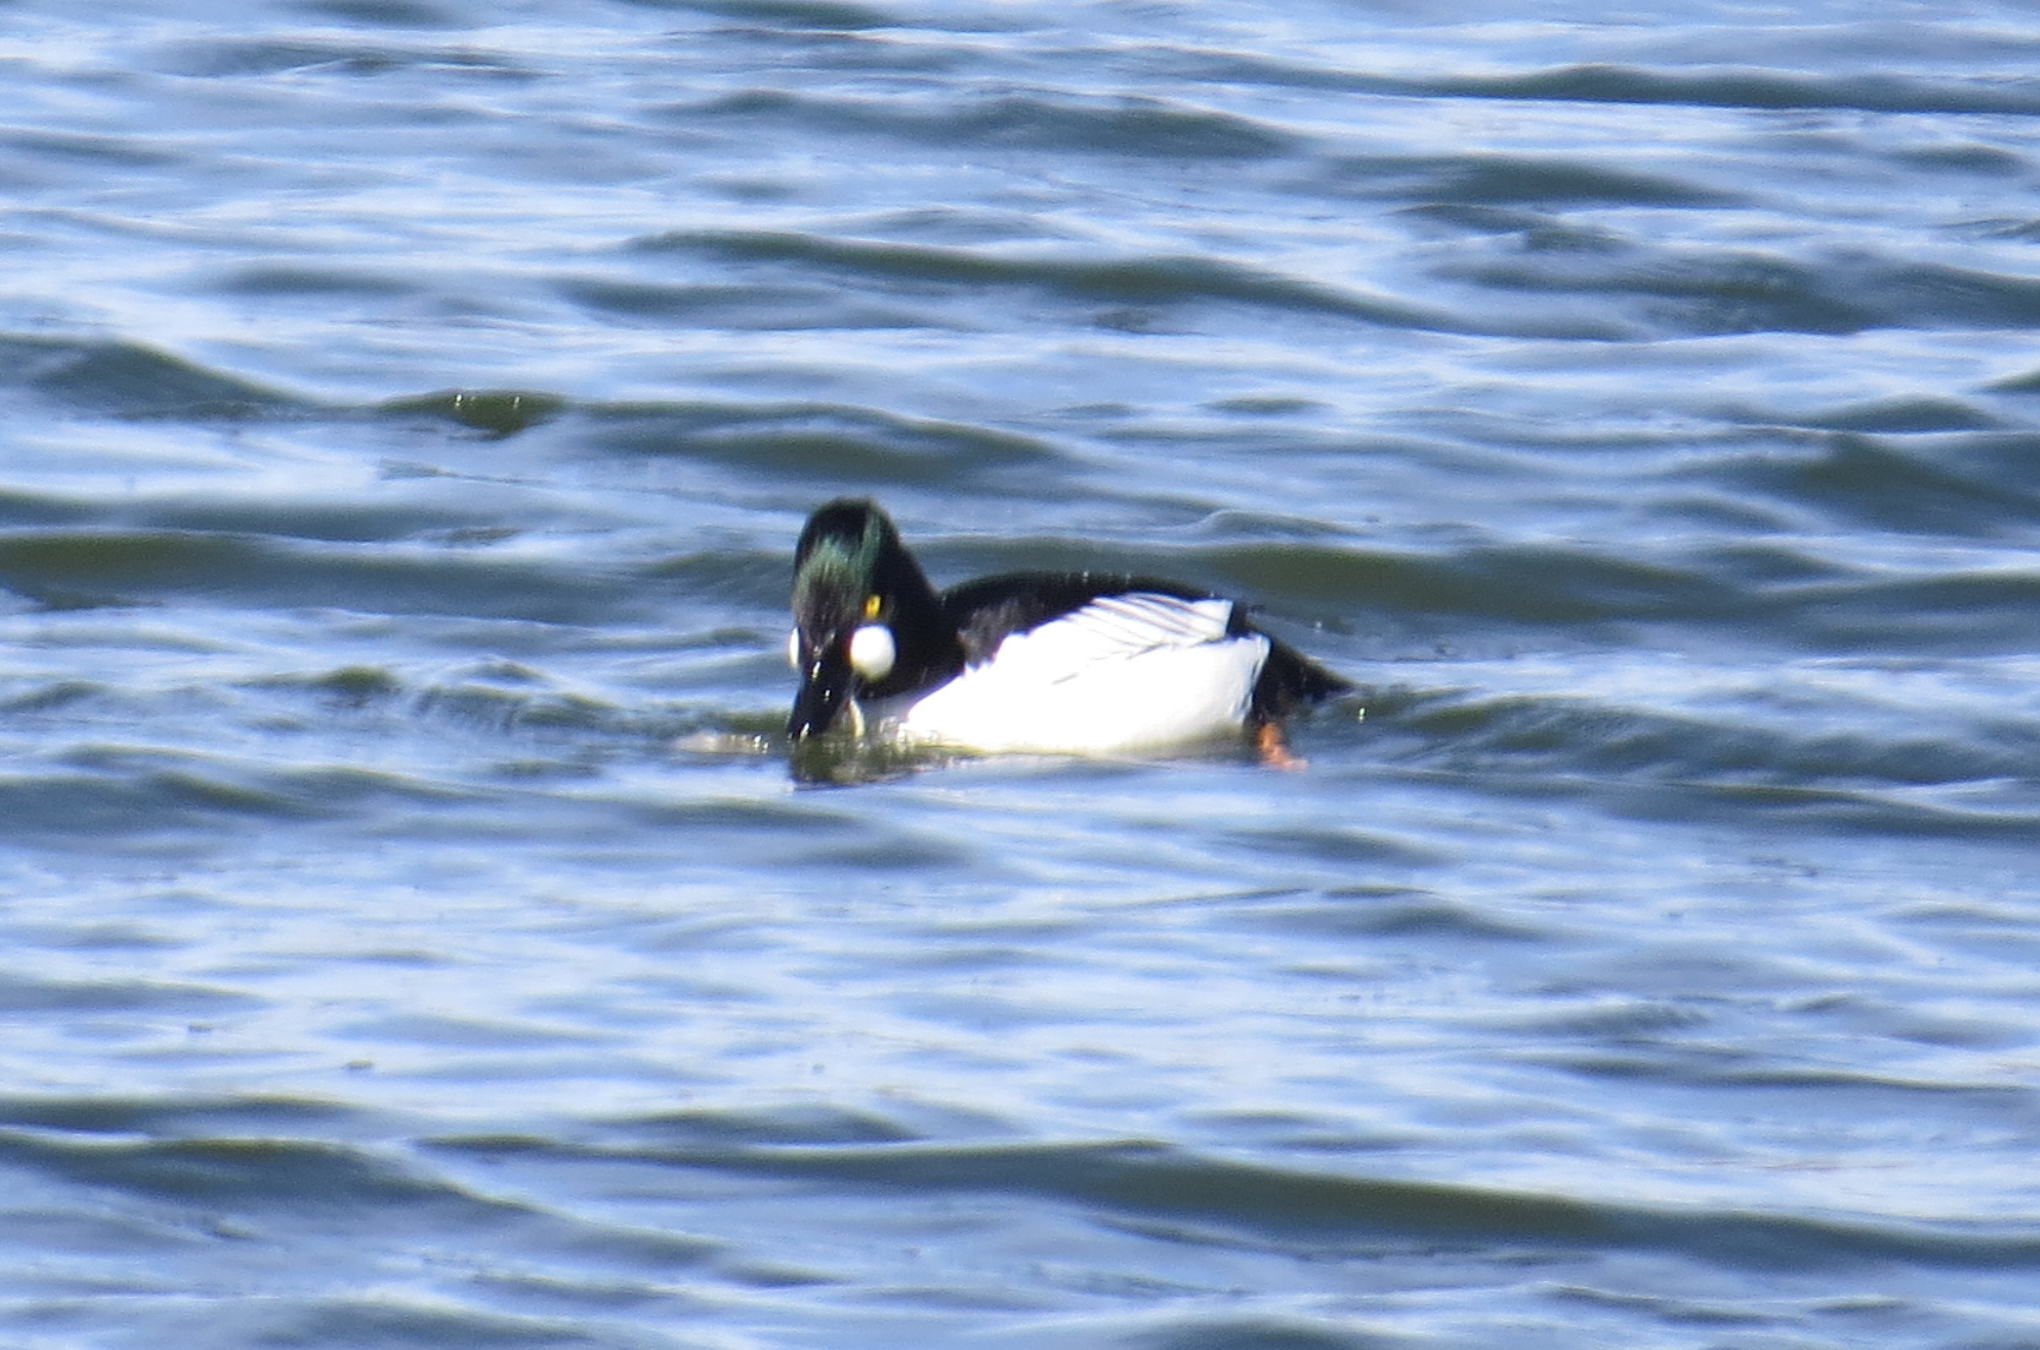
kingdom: Animalia
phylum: Chordata
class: Aves
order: Anseriformes
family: Anatidae
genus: Bucephala
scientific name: Bucephala clangula
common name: Common goldeneye
